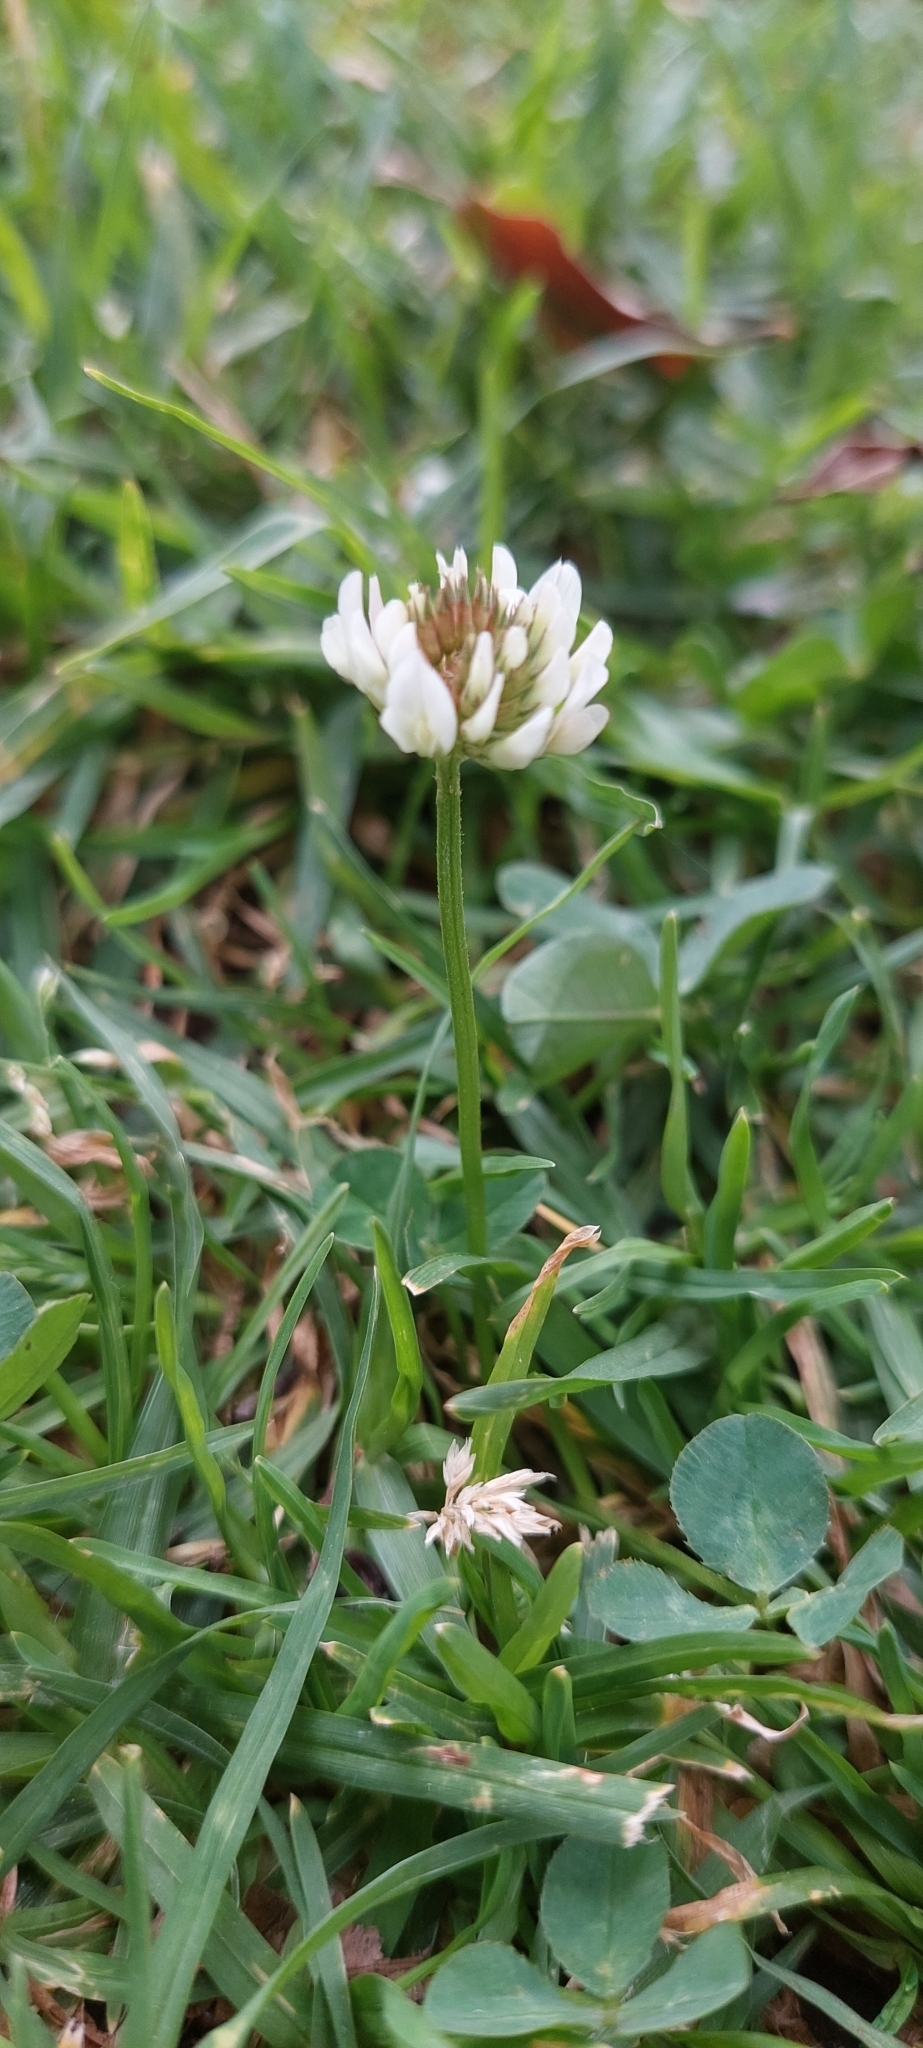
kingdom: Plantae
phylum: Tracheophyta
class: Magnoliopsida
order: Fabales
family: Fabaceae
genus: Trifolium
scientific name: Trifolium repens
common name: White clover
